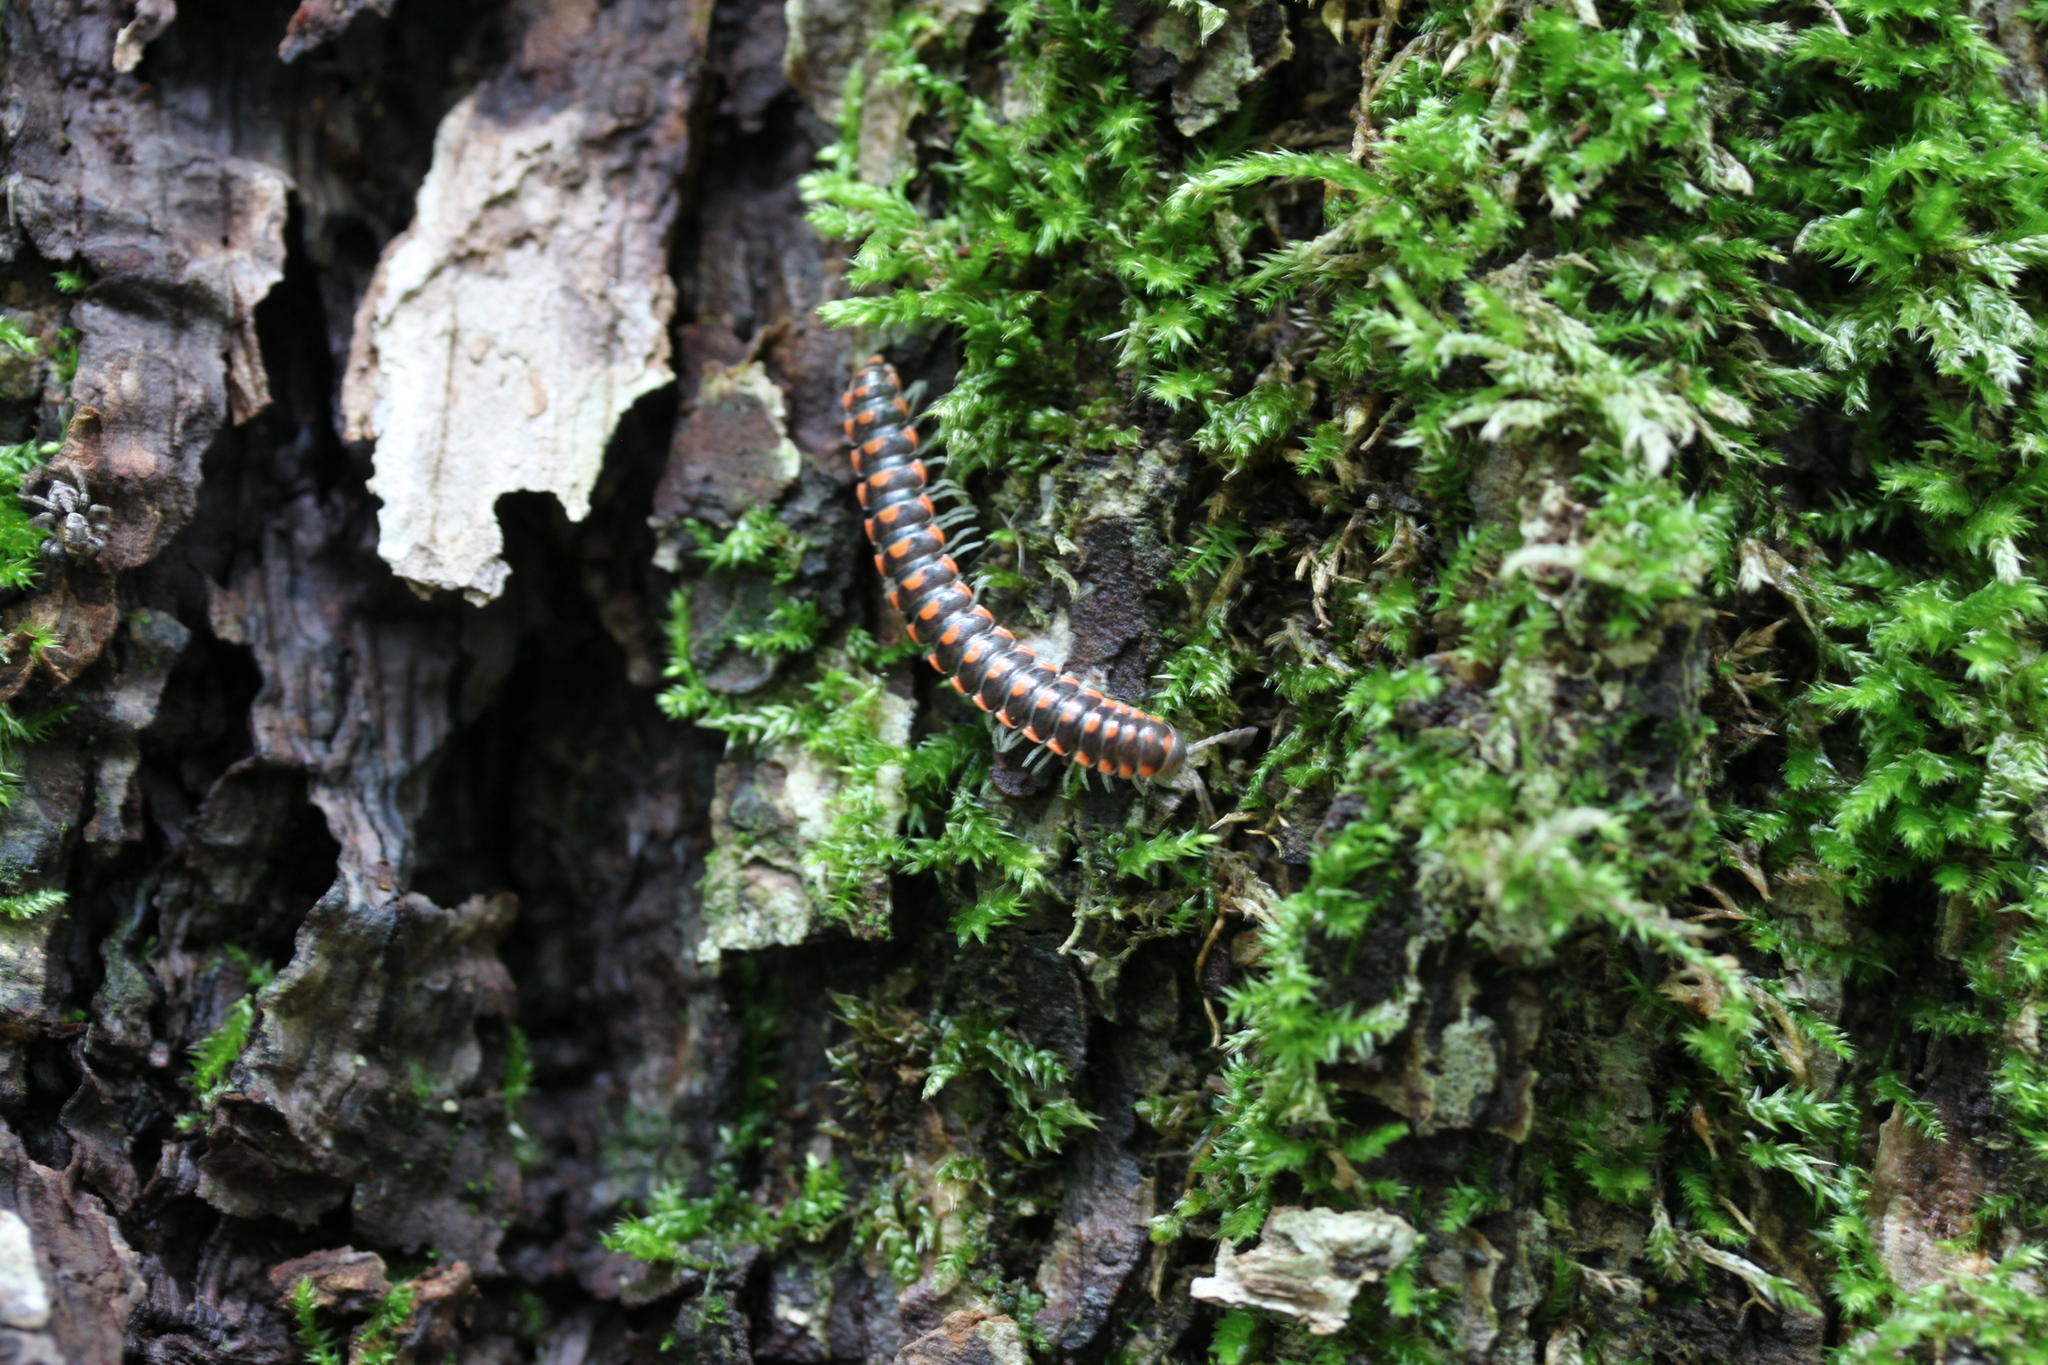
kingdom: Animalia
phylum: Arthropoda
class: Diplopoda
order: Polydesmida
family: Xystodesmidae
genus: Euryurus
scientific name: Euryurus leachii
